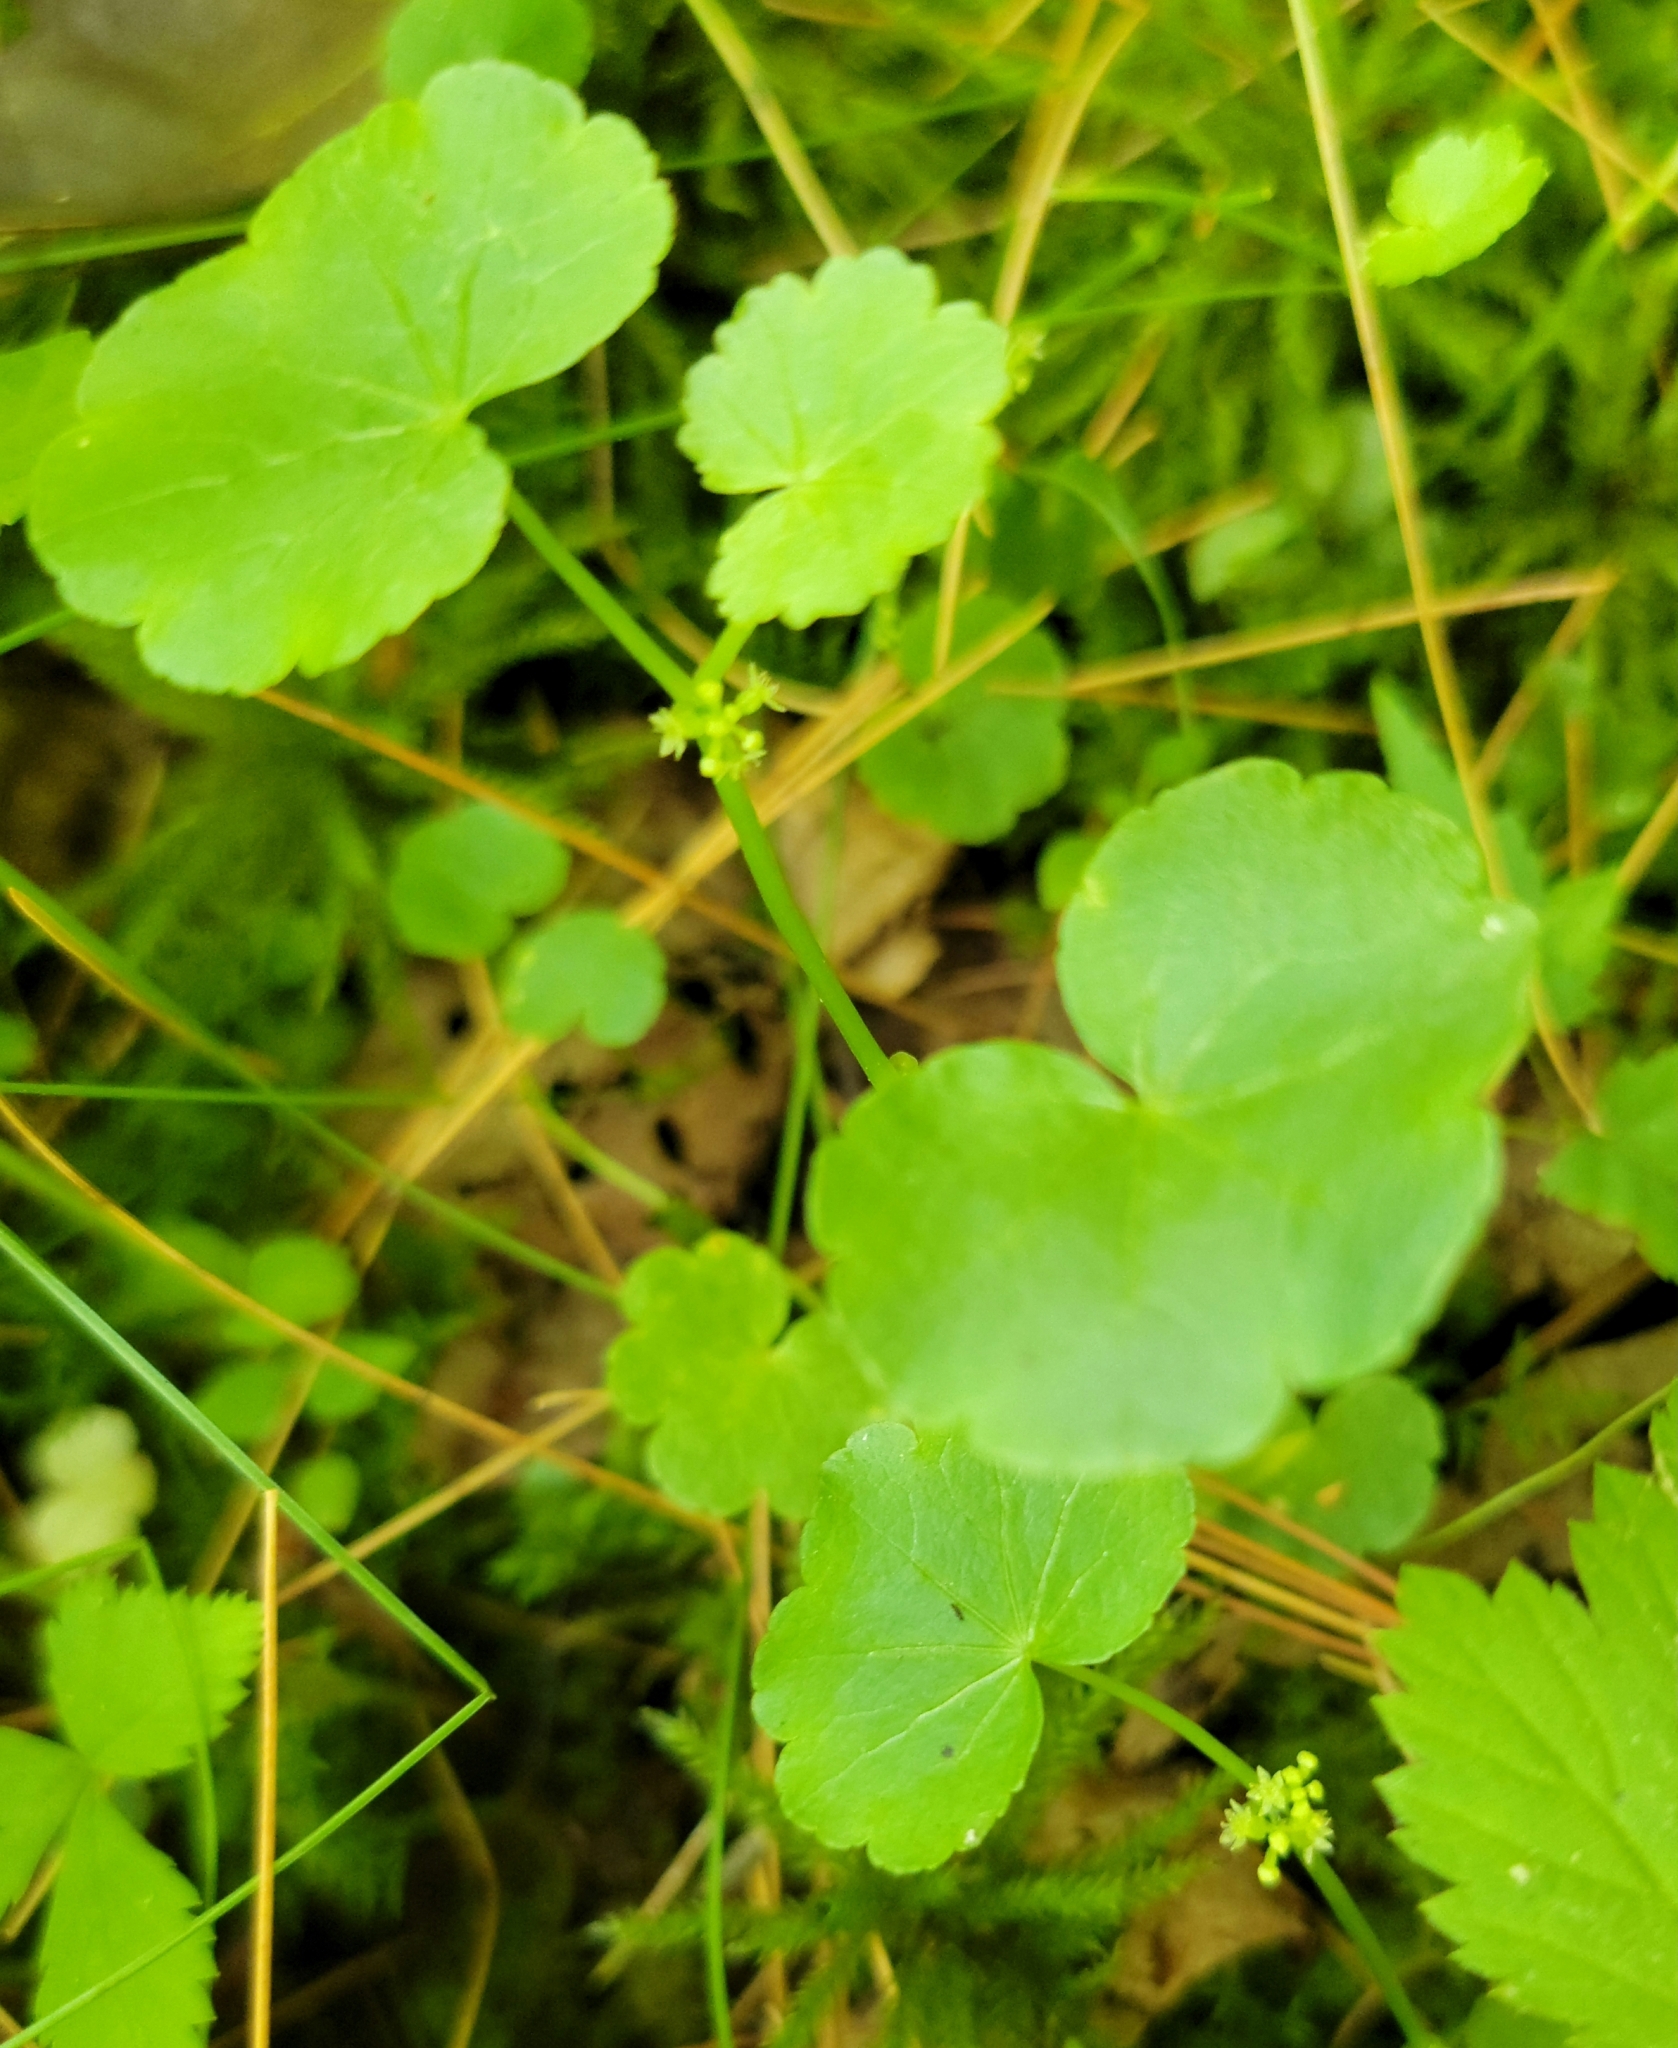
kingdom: Plantae
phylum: Tracheophyta
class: Magnoliopsida
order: Apiales
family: Araliaceae
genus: Hydrocotyle
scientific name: Hydrocotyle americana
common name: American water-pennywort
